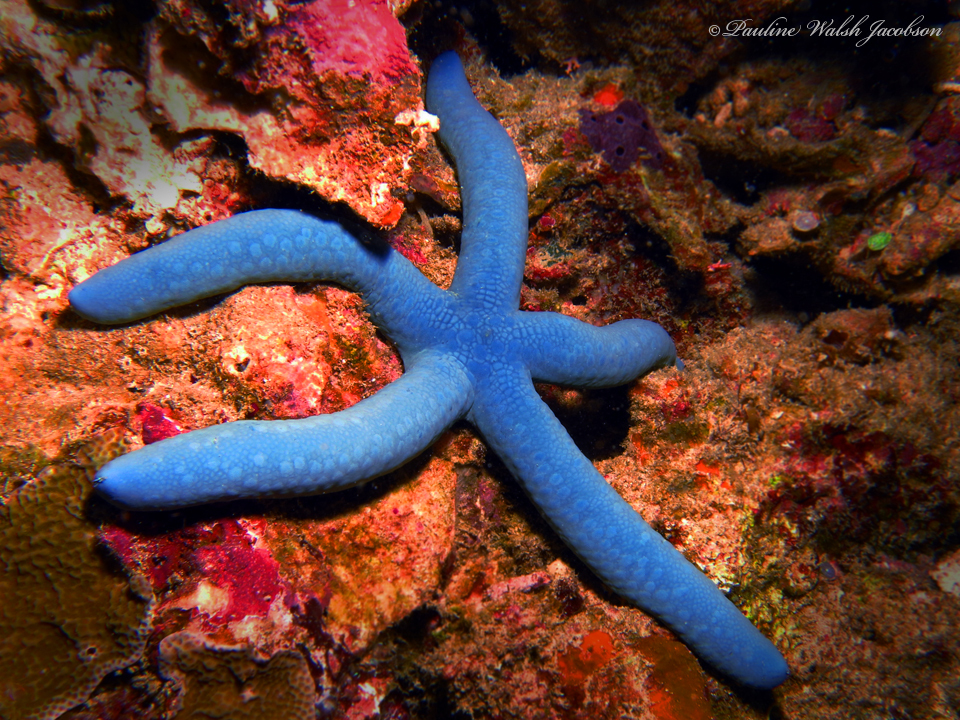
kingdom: Animalia
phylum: Echinodermata
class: Asteroidea
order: Valvatida
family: Ophidiasteridae
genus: Linckia
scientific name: Linckia laevigata
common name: Azure sea star
